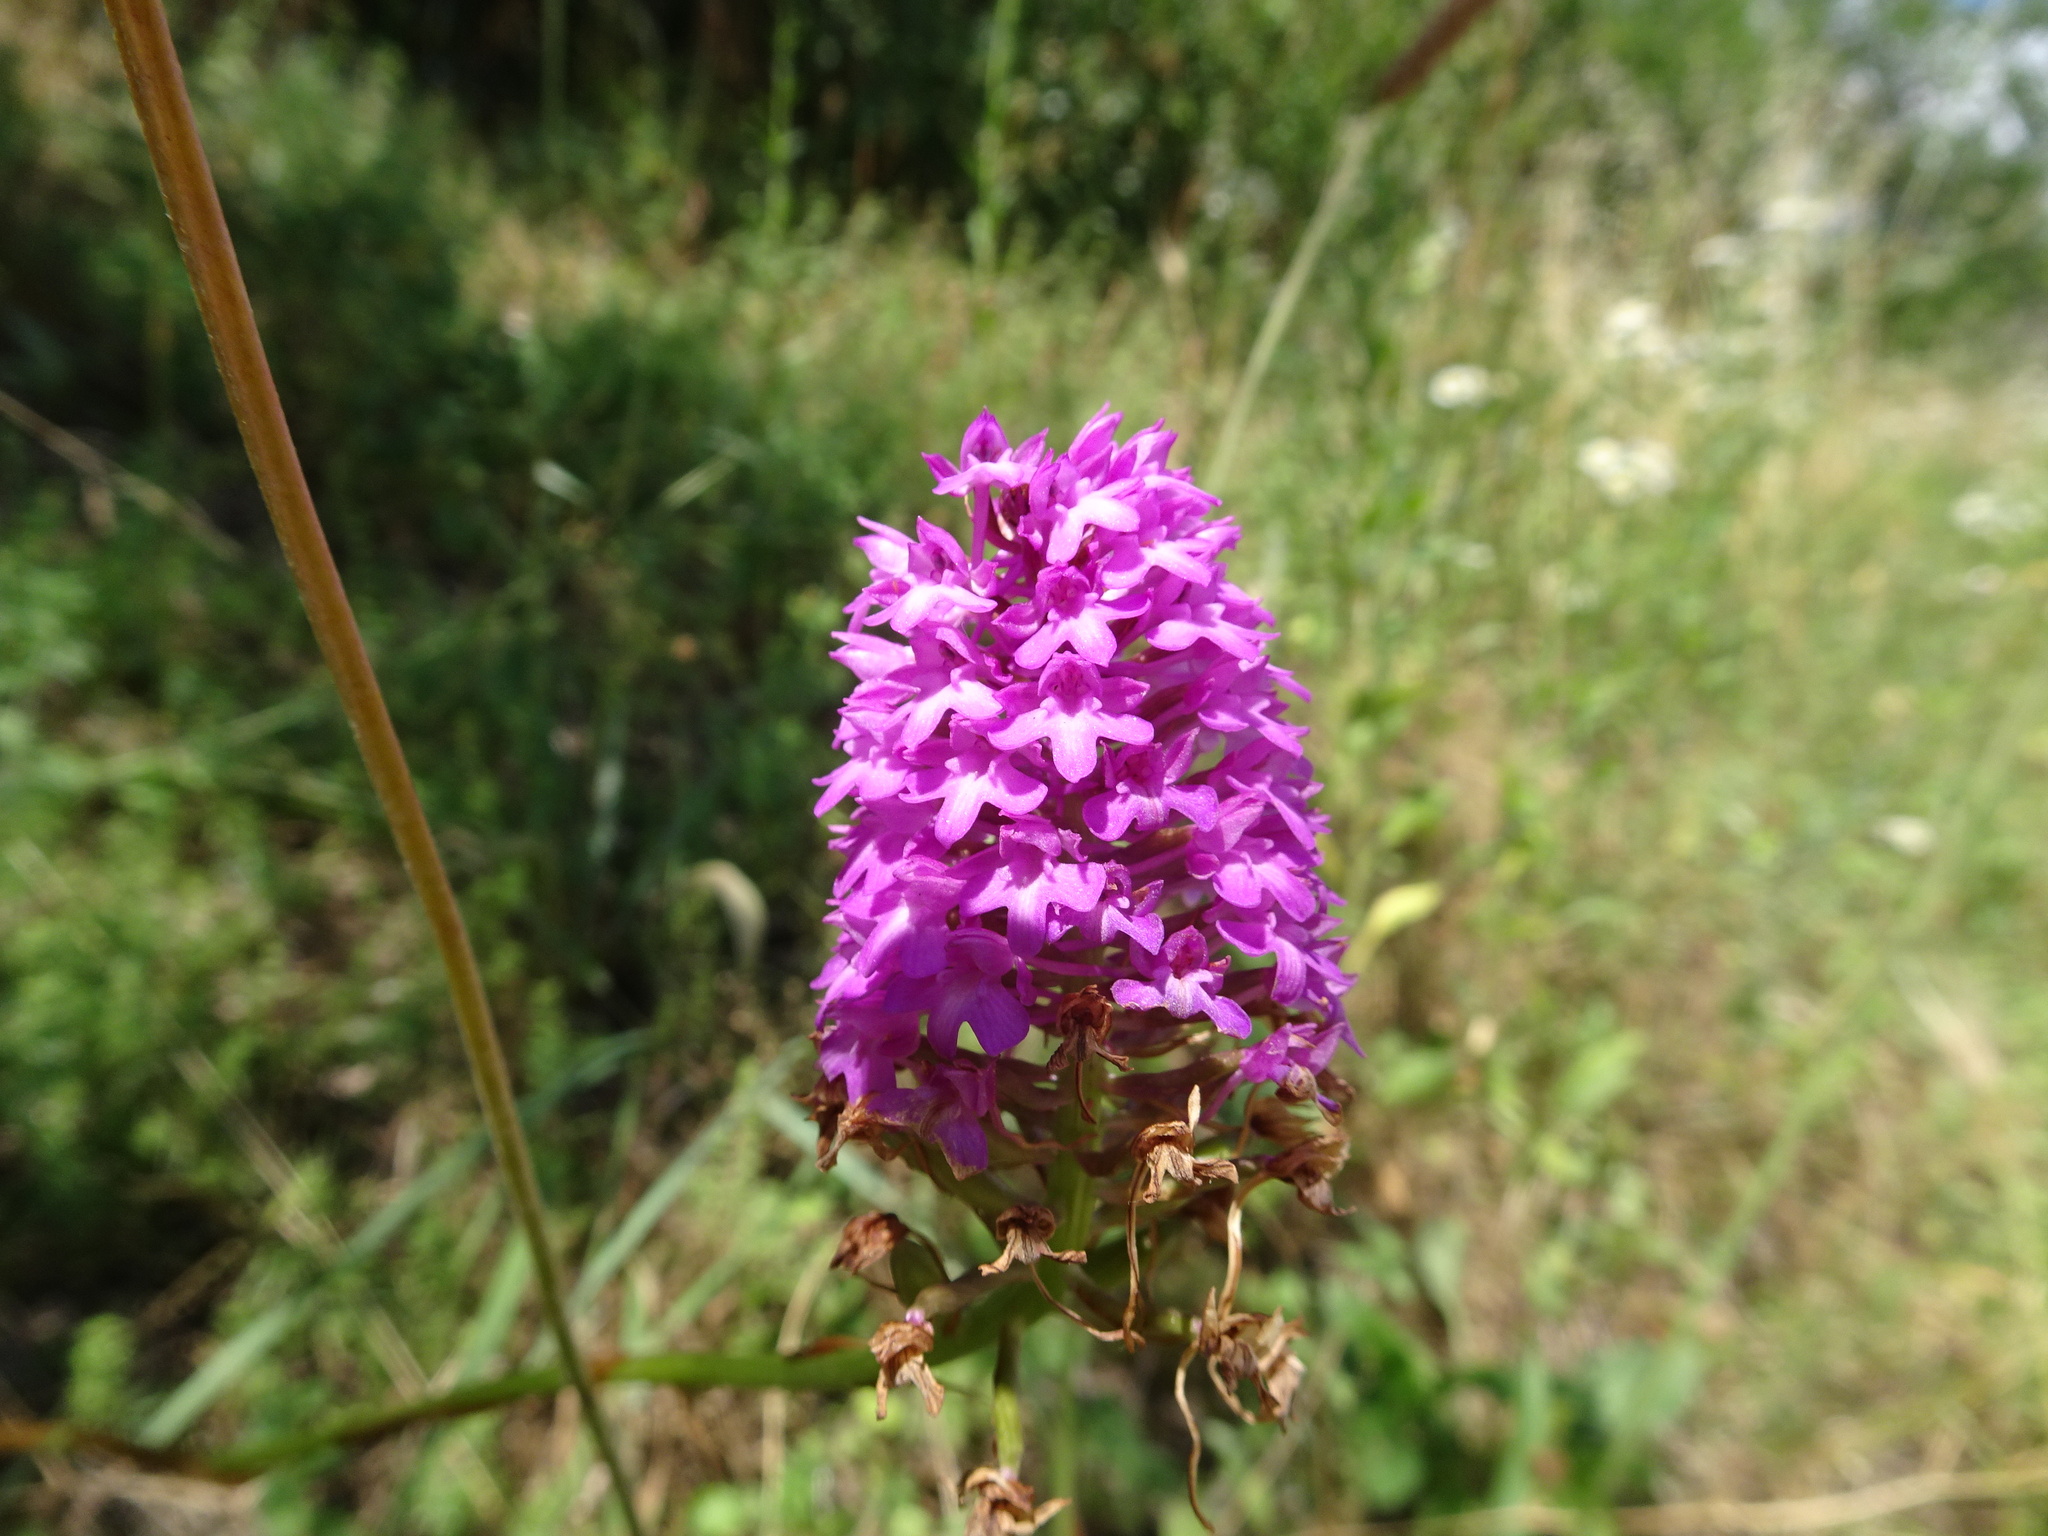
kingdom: Plantae
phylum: Tracheophyta
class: Liliopsida
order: Asparagales
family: Orchidaceae
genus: Anacamptis
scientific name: Anacamptis pyramidalis
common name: Pyramidal orchid
